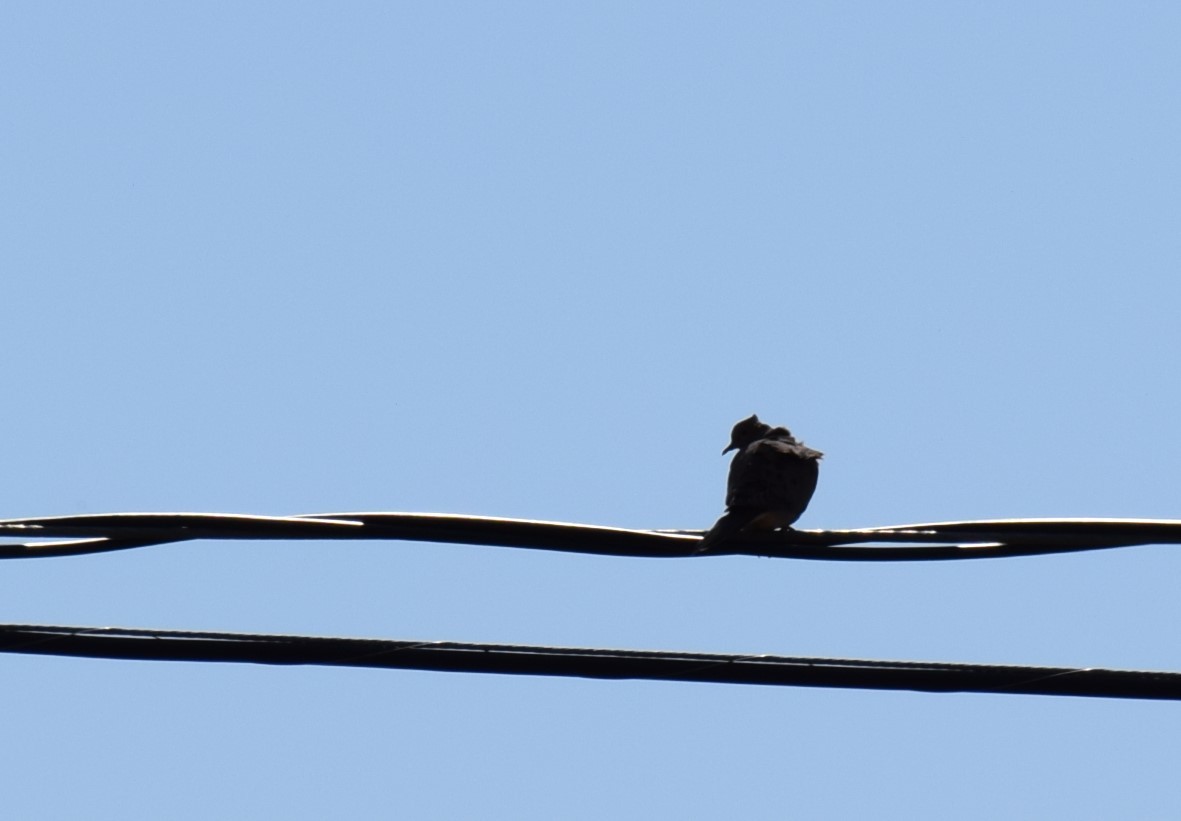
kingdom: Animalia
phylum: Chordata
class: Aves
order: Columbiformes
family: Columbidae
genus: Zenaida
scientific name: Zenaida macroura
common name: Mourning dove
